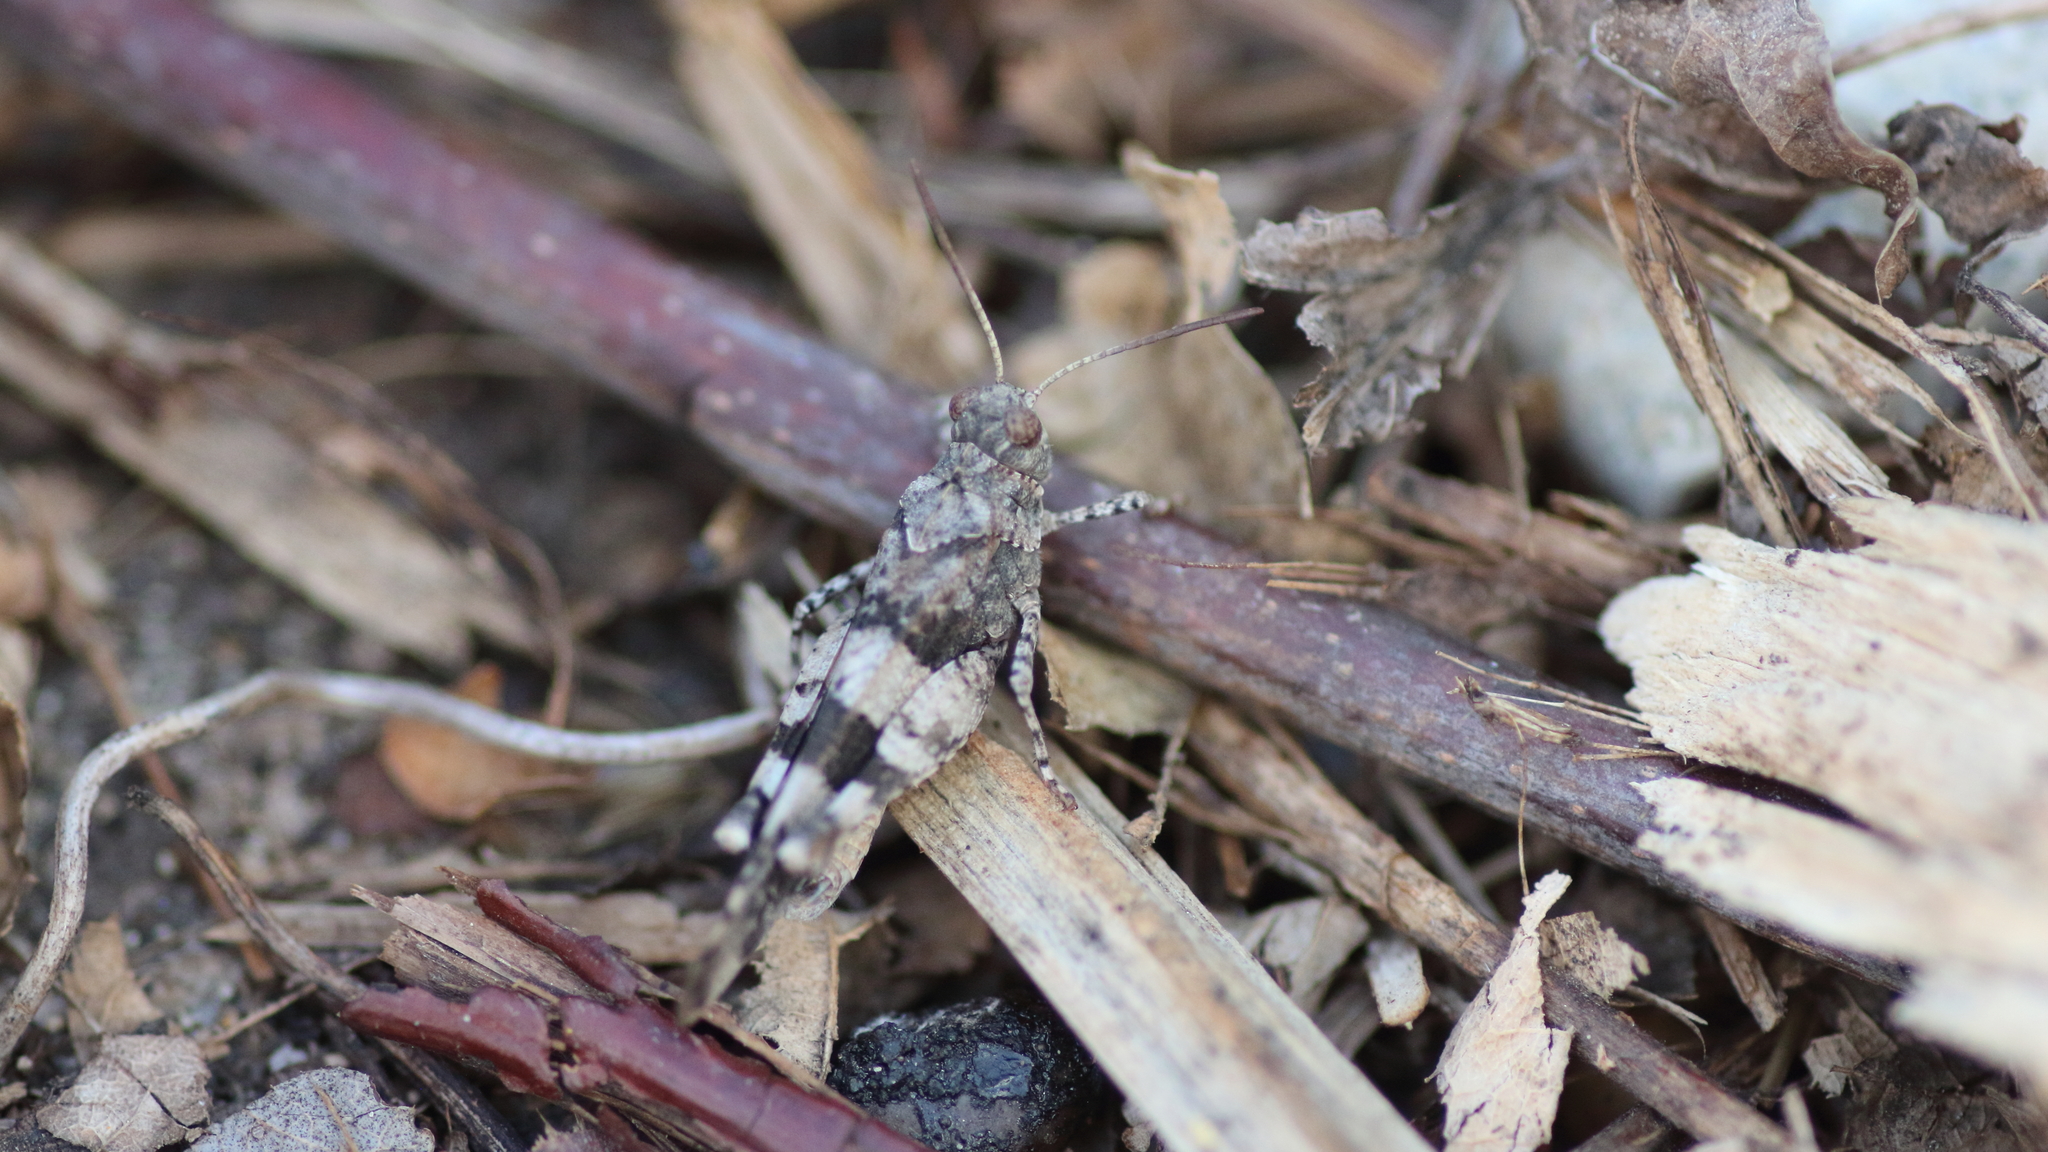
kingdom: Animalia
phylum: Arthropoda
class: Insecta
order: Orthoptera
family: Acrididae
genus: Oedipoda
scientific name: Oedipoda caerulescens
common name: Blue-winged grasshopper
